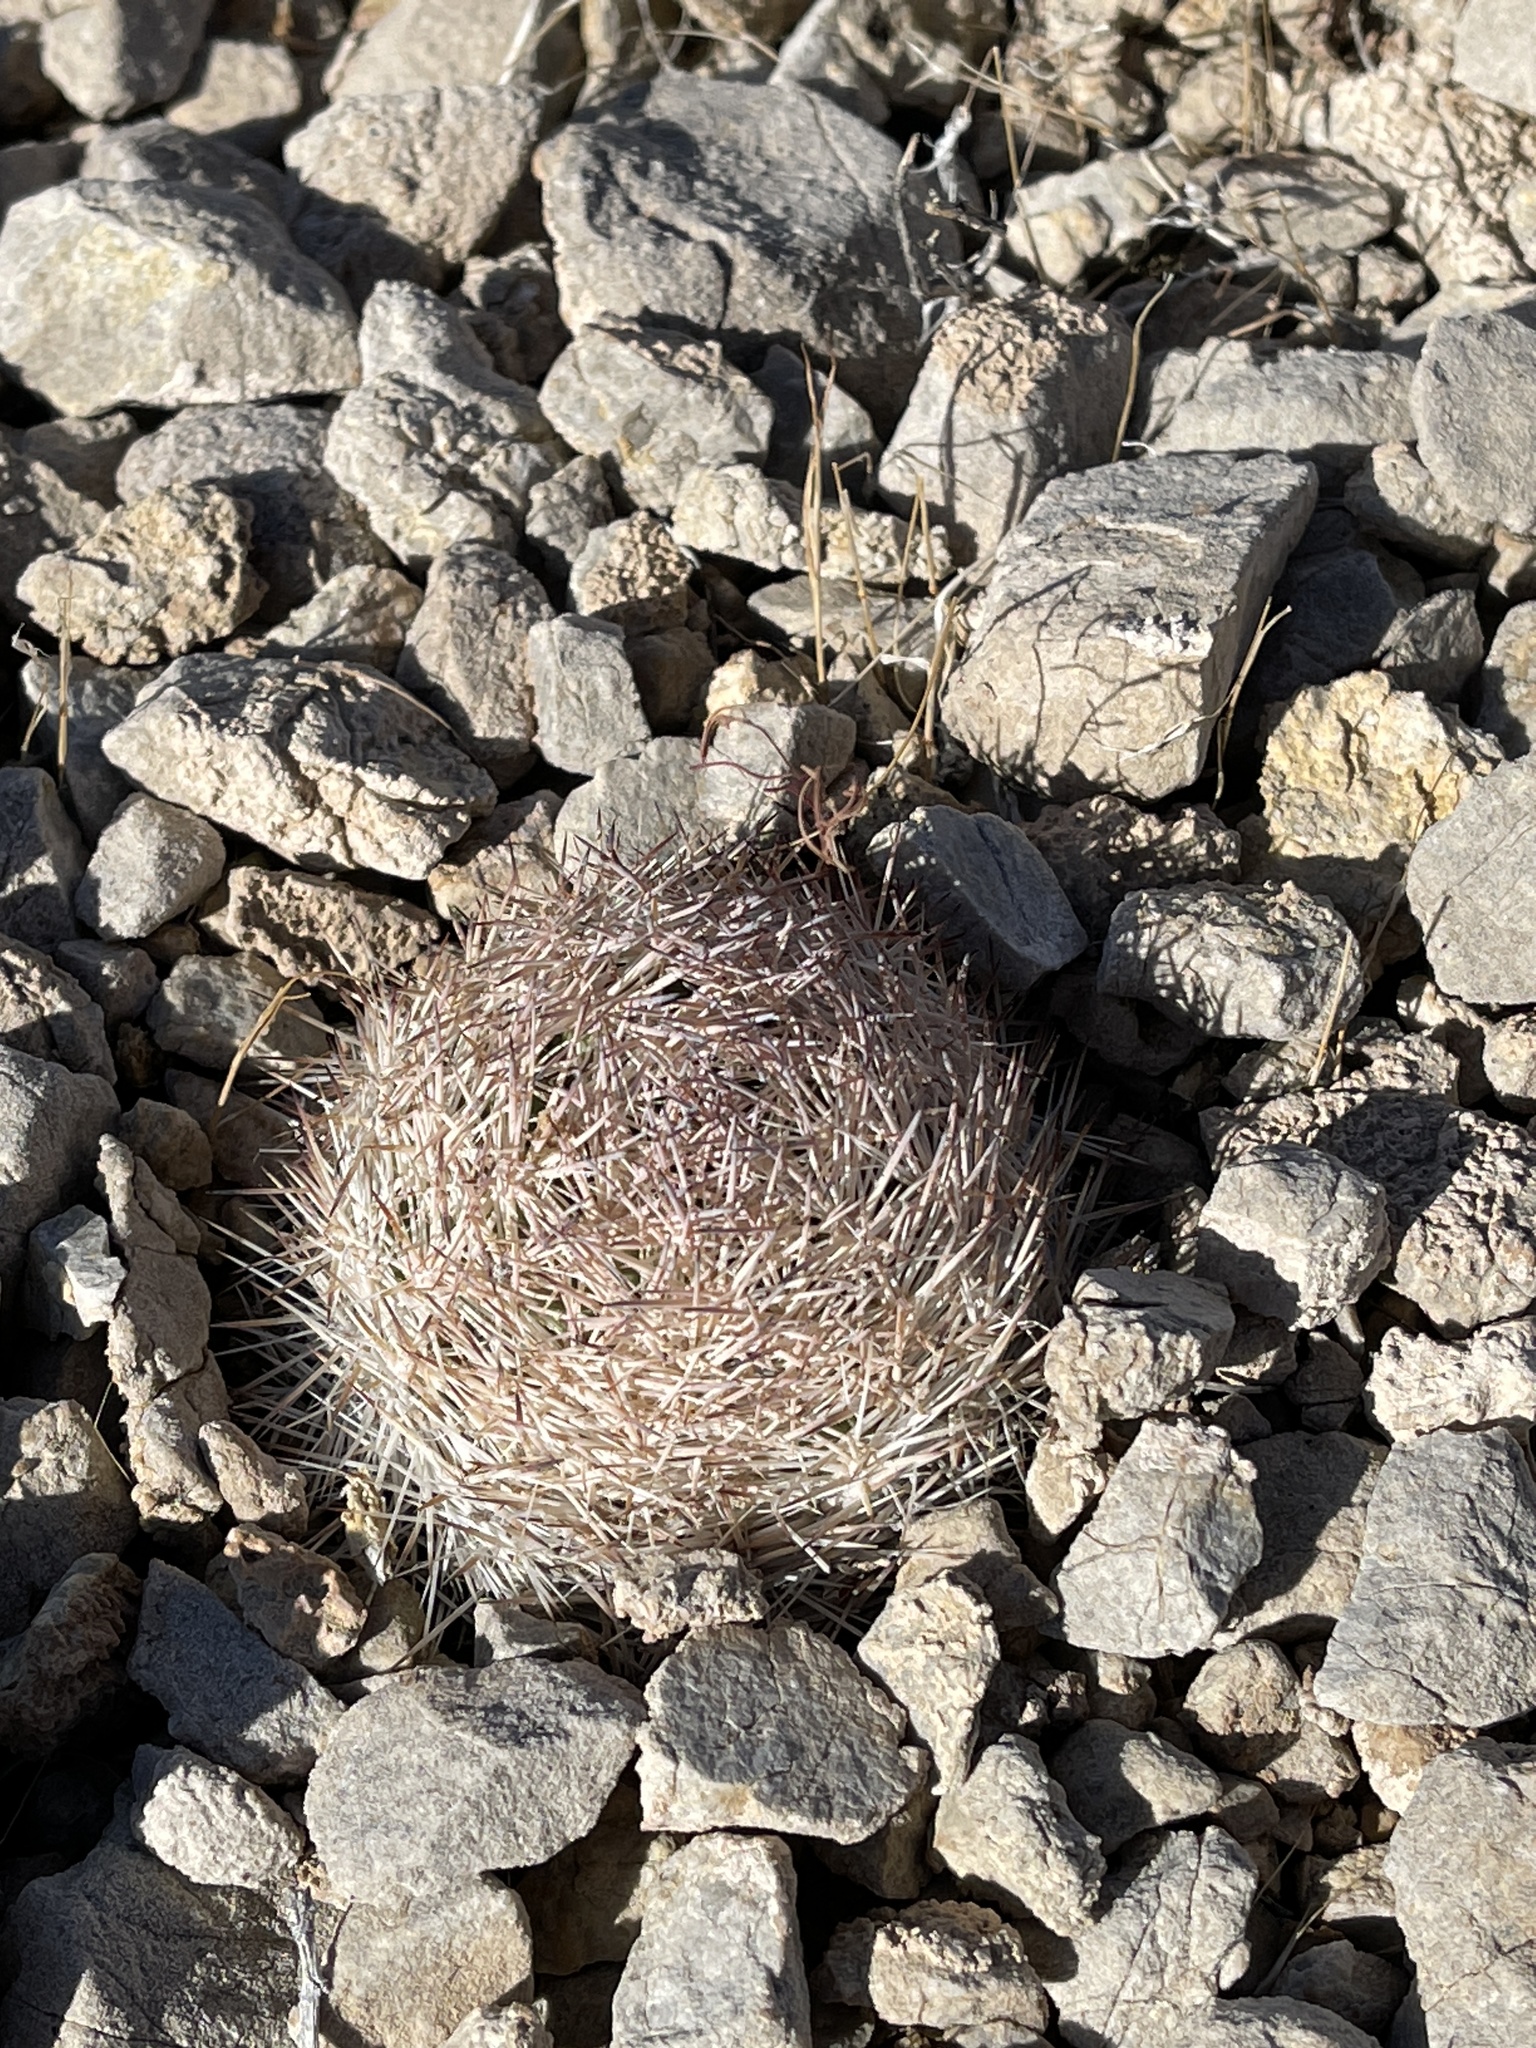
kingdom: Plantae
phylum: Tracheophyta
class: Magnoliopsida
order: Caryophyllales
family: Cactaceae
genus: Pelecyphora
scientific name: Pelecyphora dasyacantha
